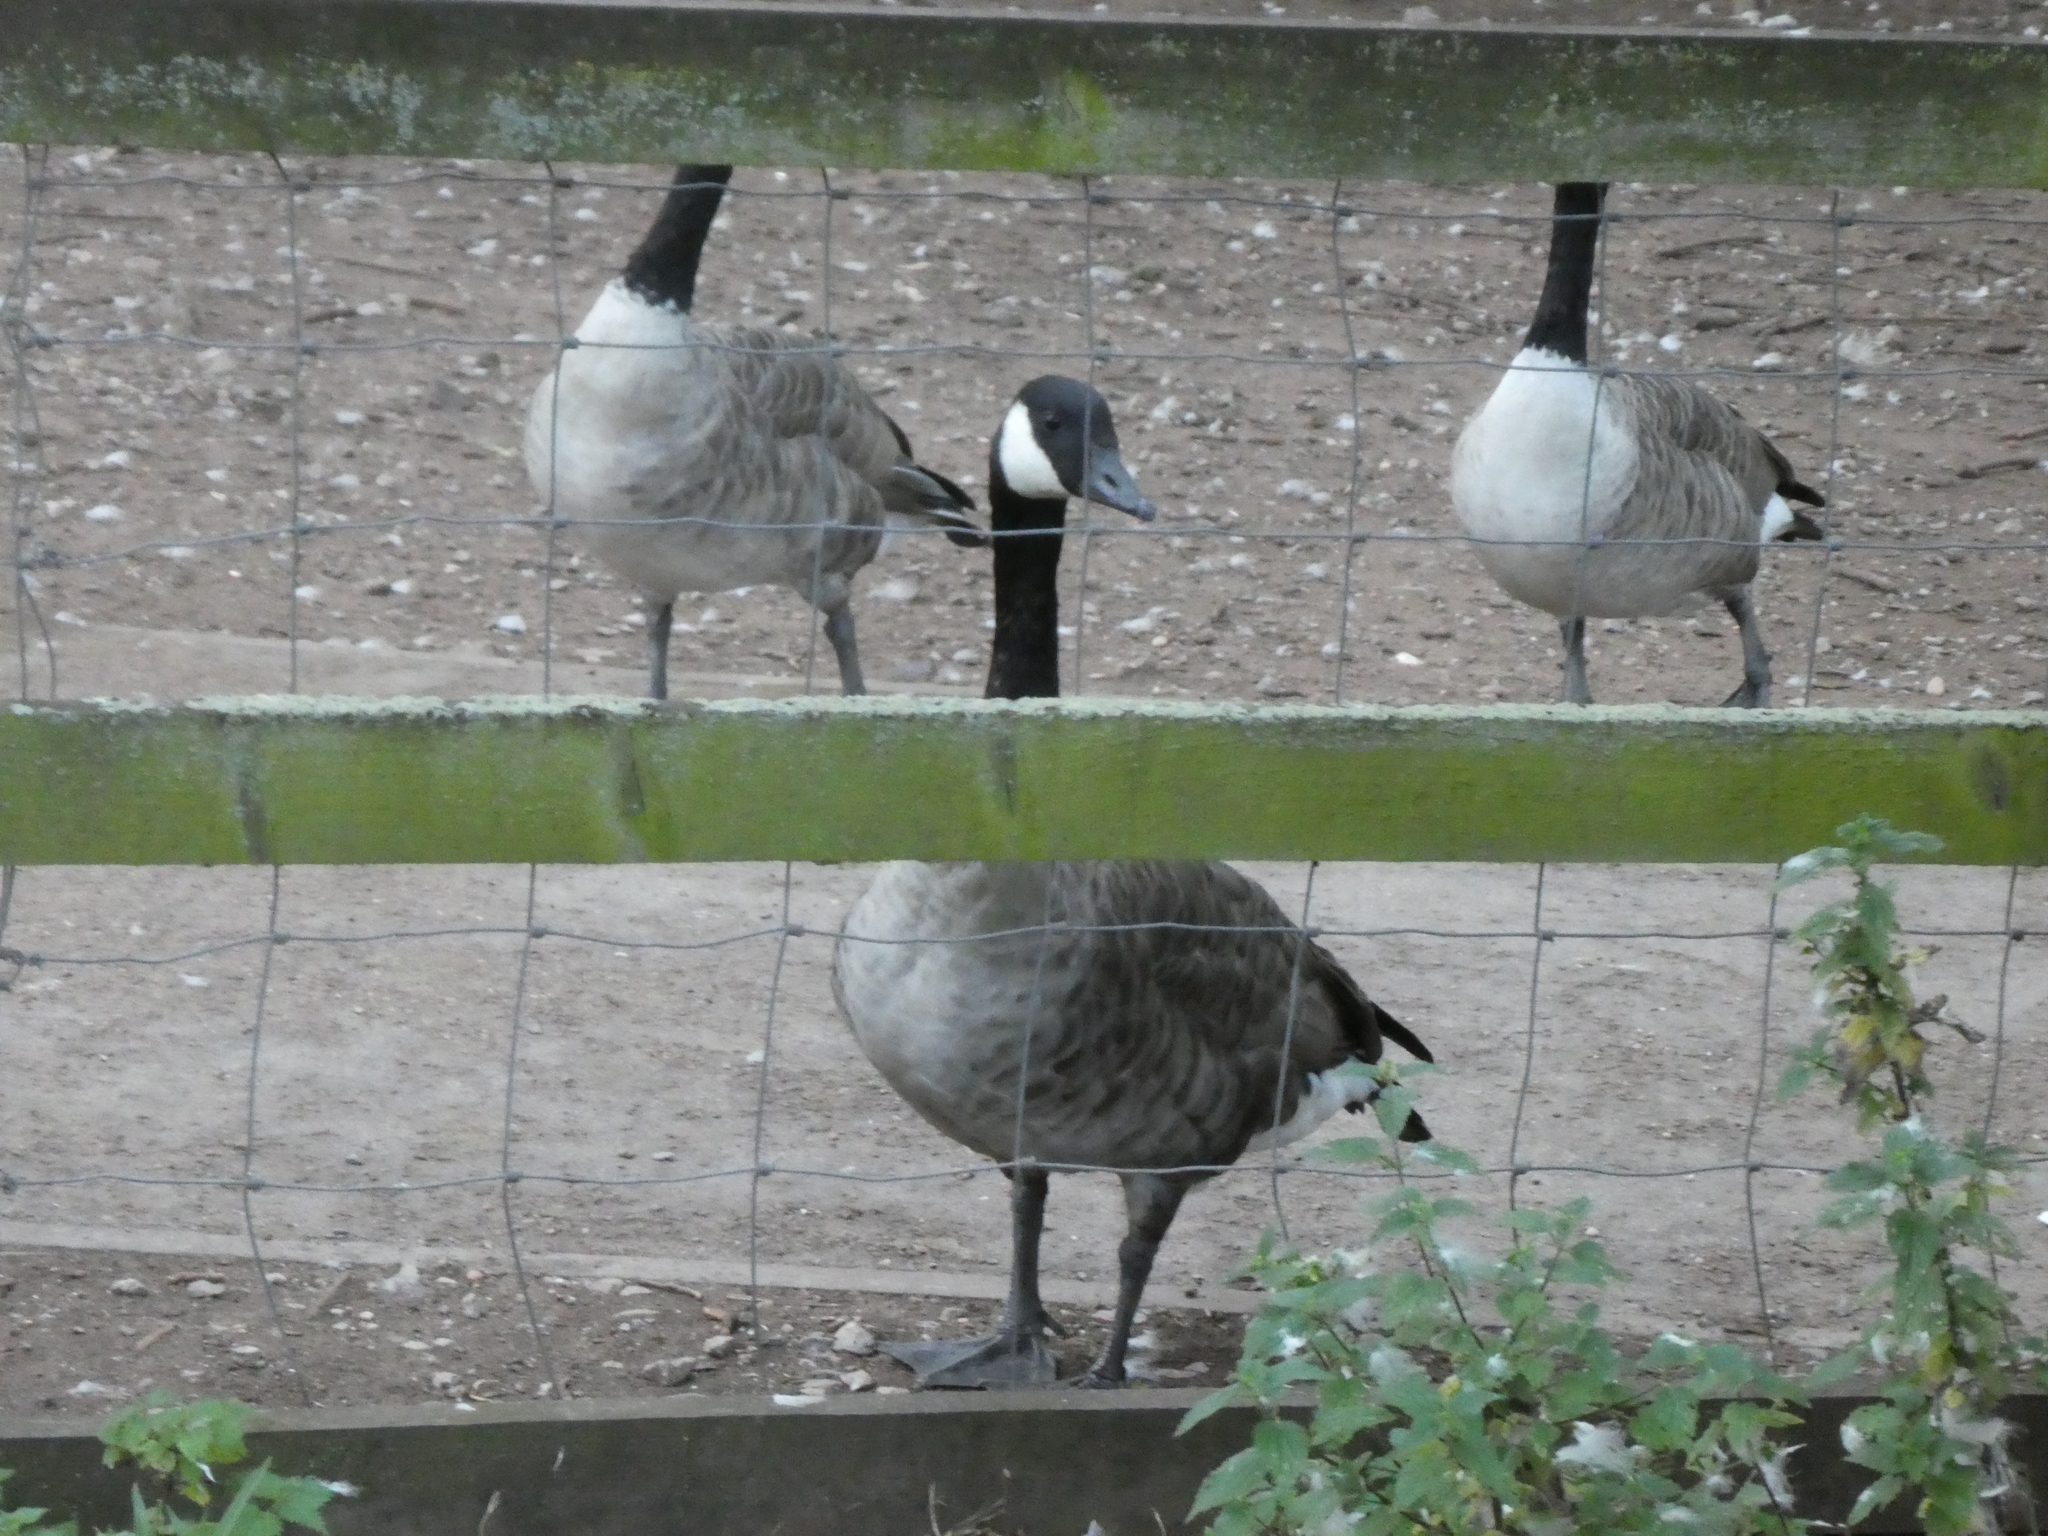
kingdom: Animalia
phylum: Chordata
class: Aves
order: Anseriformes
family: Anatidae
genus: Branta
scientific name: Branta canadensis
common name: Canada goose
